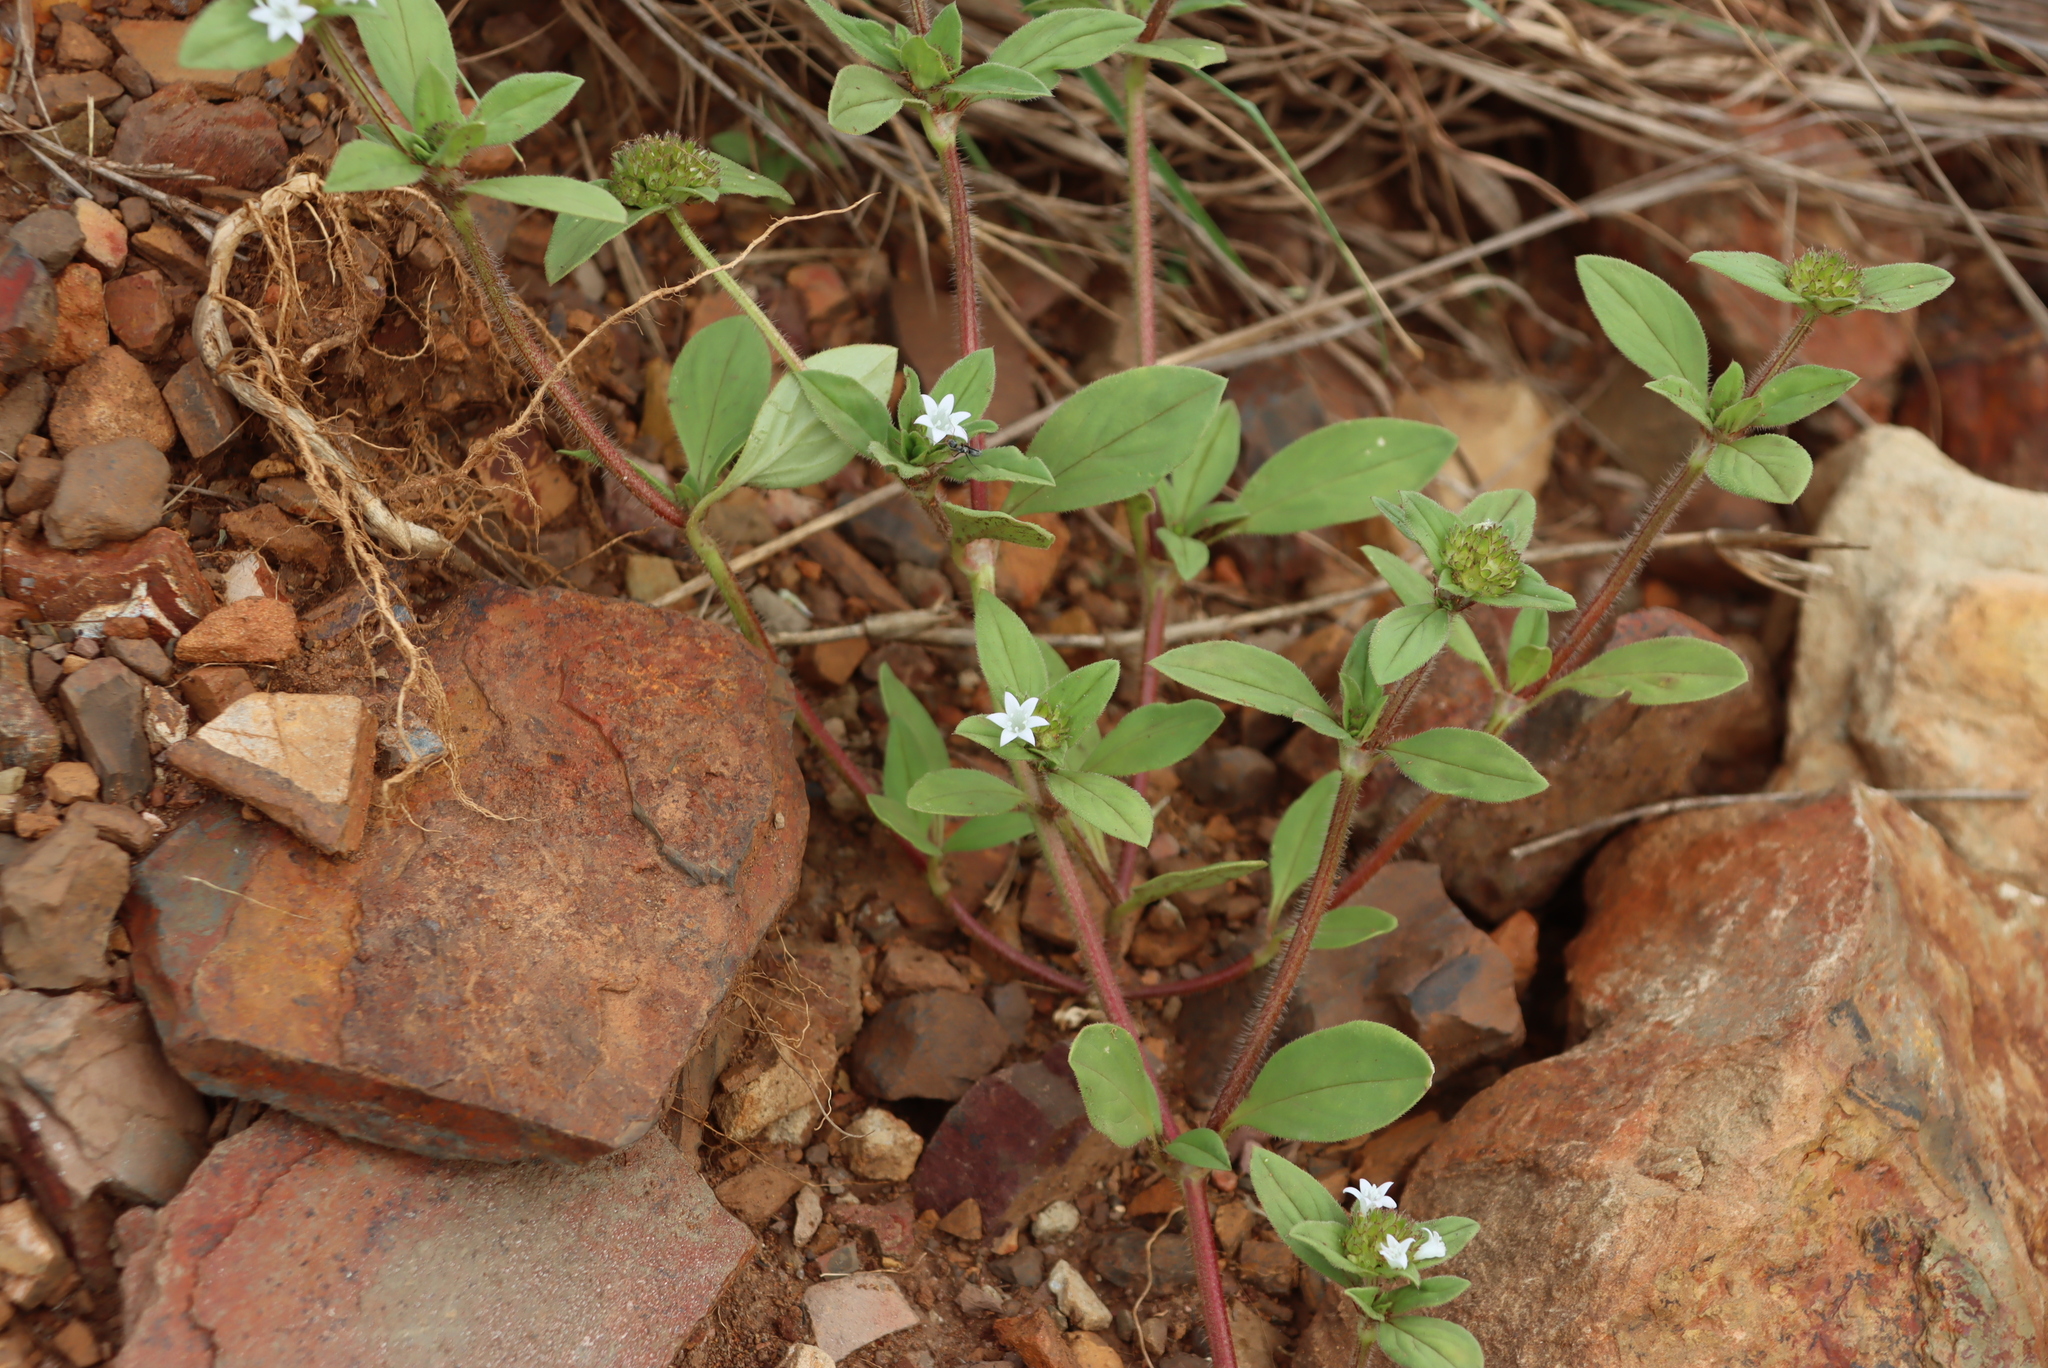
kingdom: Plantae
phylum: Tracheophyta
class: Magnoliopsida
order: Gentianales
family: Rubiaceae
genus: Richardia
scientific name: Richardia brasiliensis
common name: Tropical mexican clover
